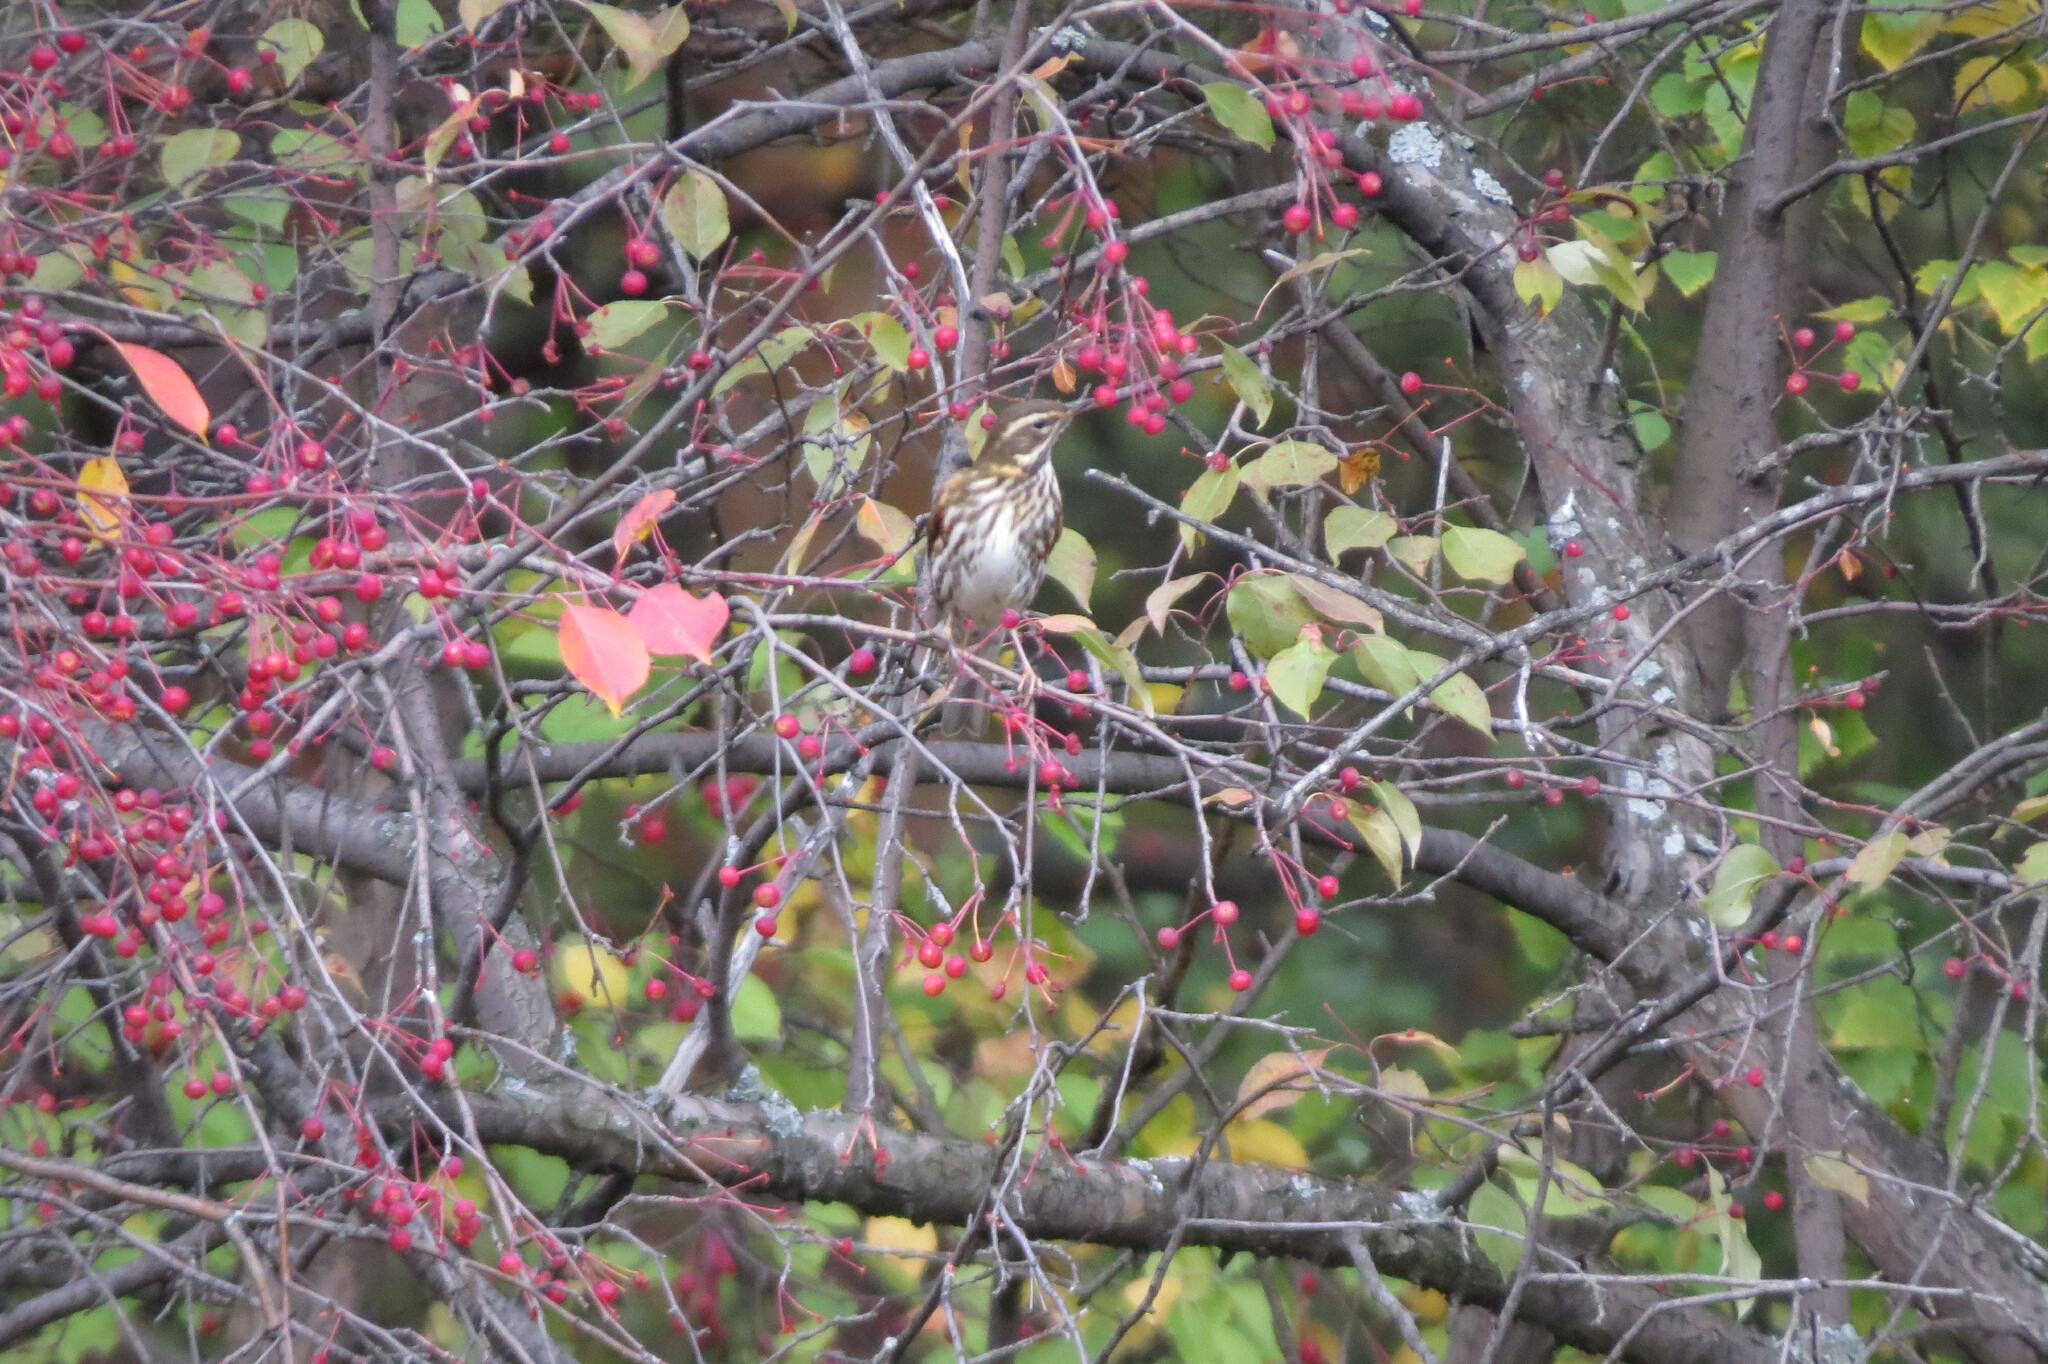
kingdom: Animalia
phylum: Chordata
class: Aves
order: Passeriformes
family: Turdidae
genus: Turdus
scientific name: Turdus iliacus
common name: Redwing
